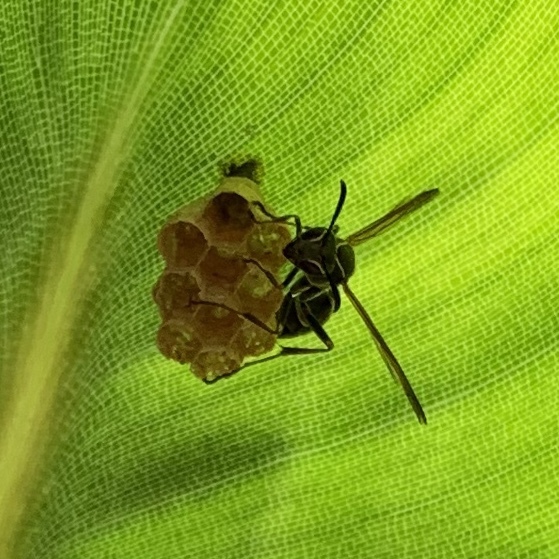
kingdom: Animalia
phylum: Arthropoda
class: Insecta
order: Hymenoptera
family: Vespidae
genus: Mischocyttarus
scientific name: Mischocyttarus pallidipectus
